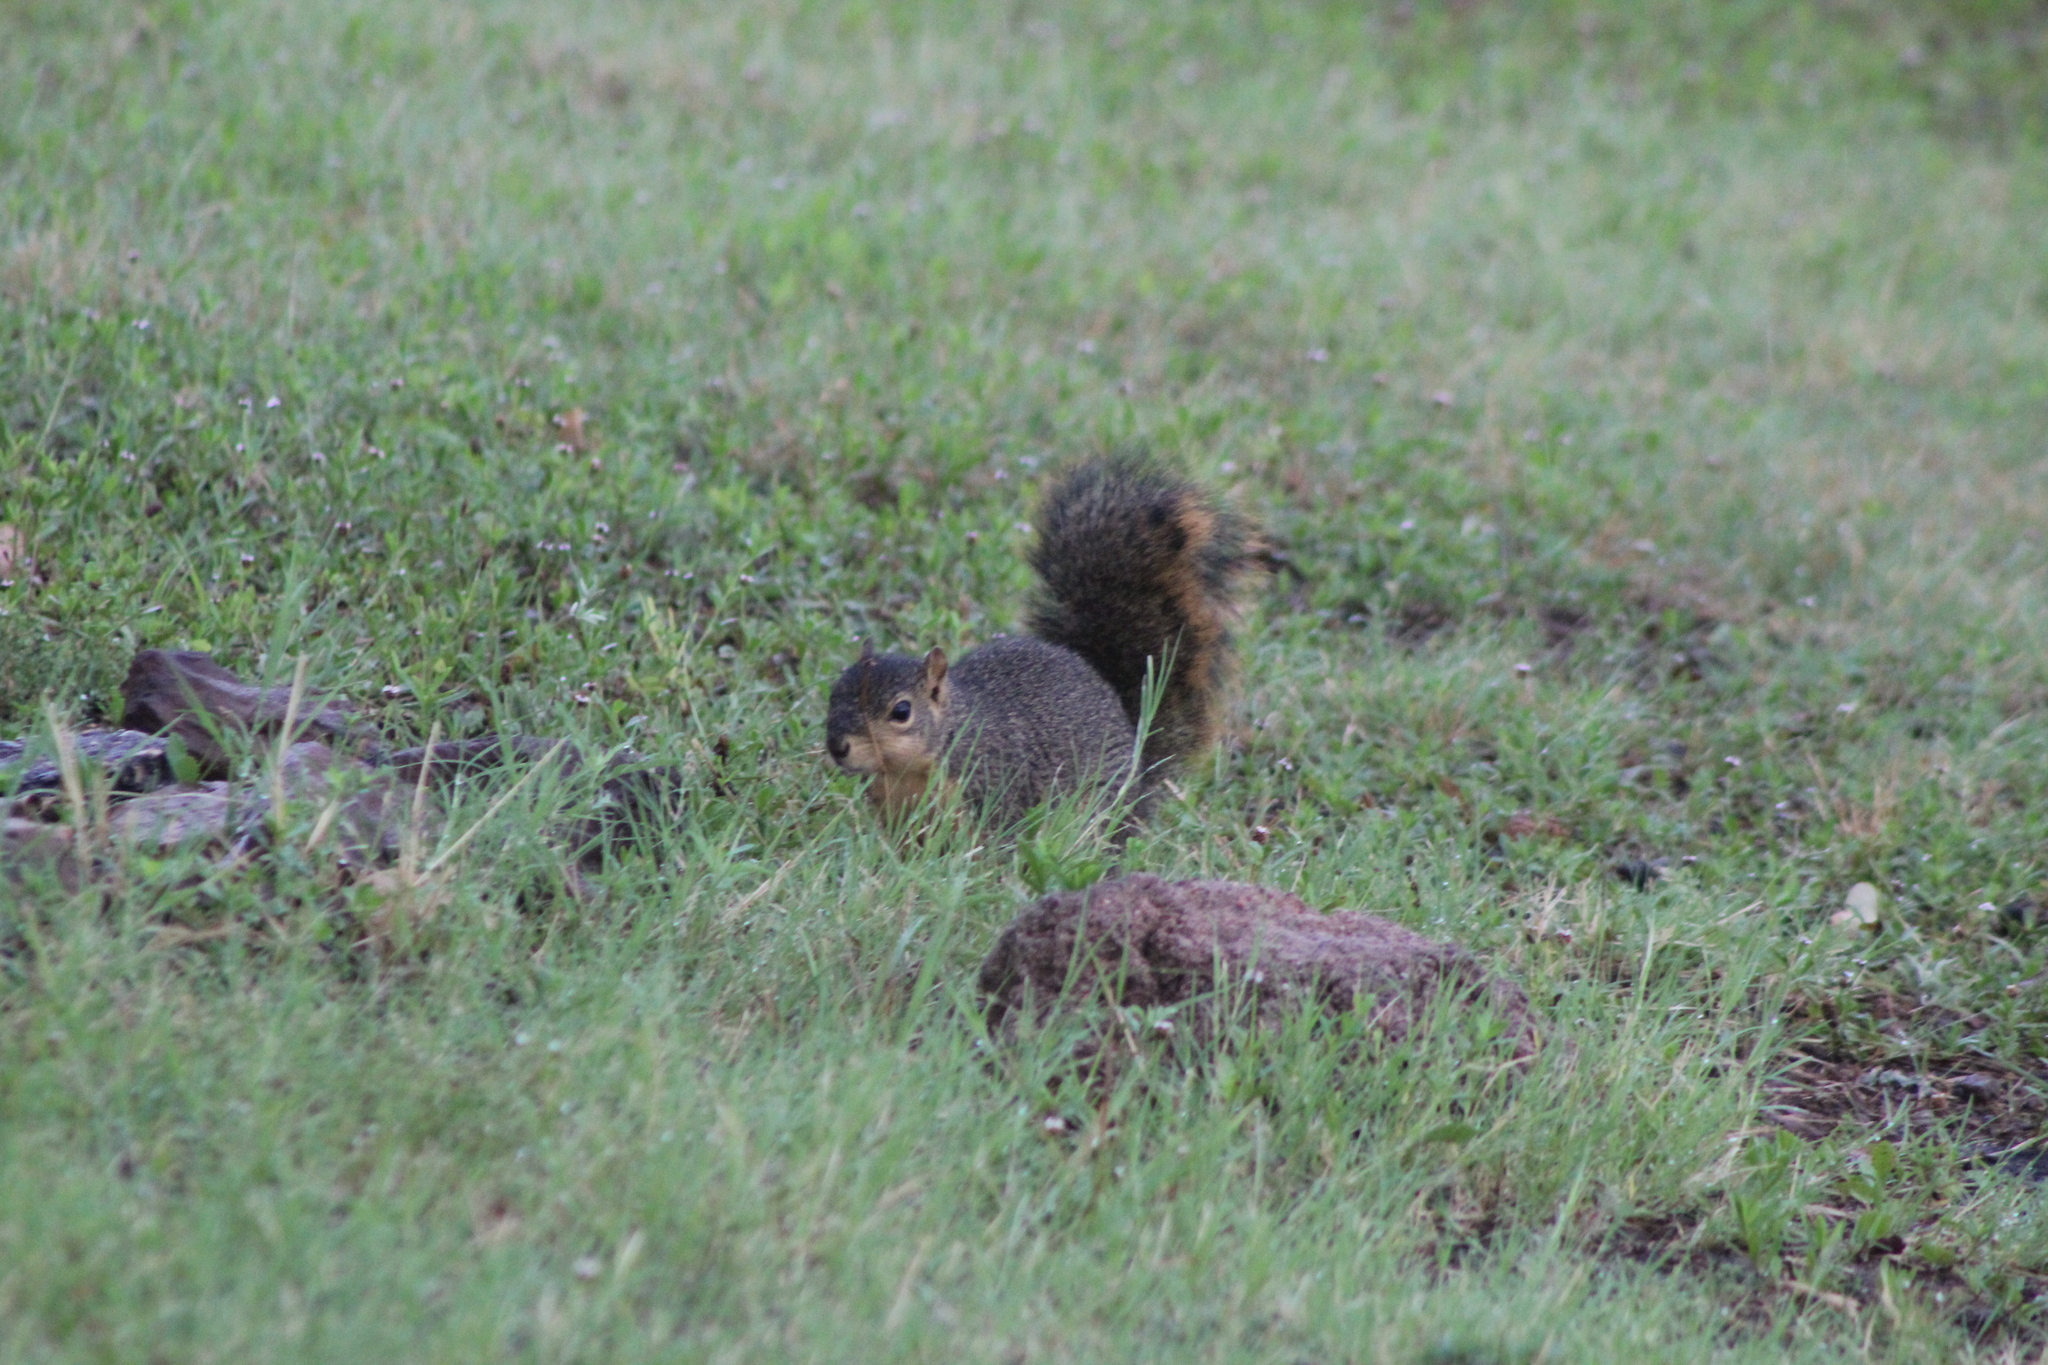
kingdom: Animalia
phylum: Chordata
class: Mammalia
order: Rodentia
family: Sciuridae
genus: Sciurus
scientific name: Sciurus niger
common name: Fox squirrel
